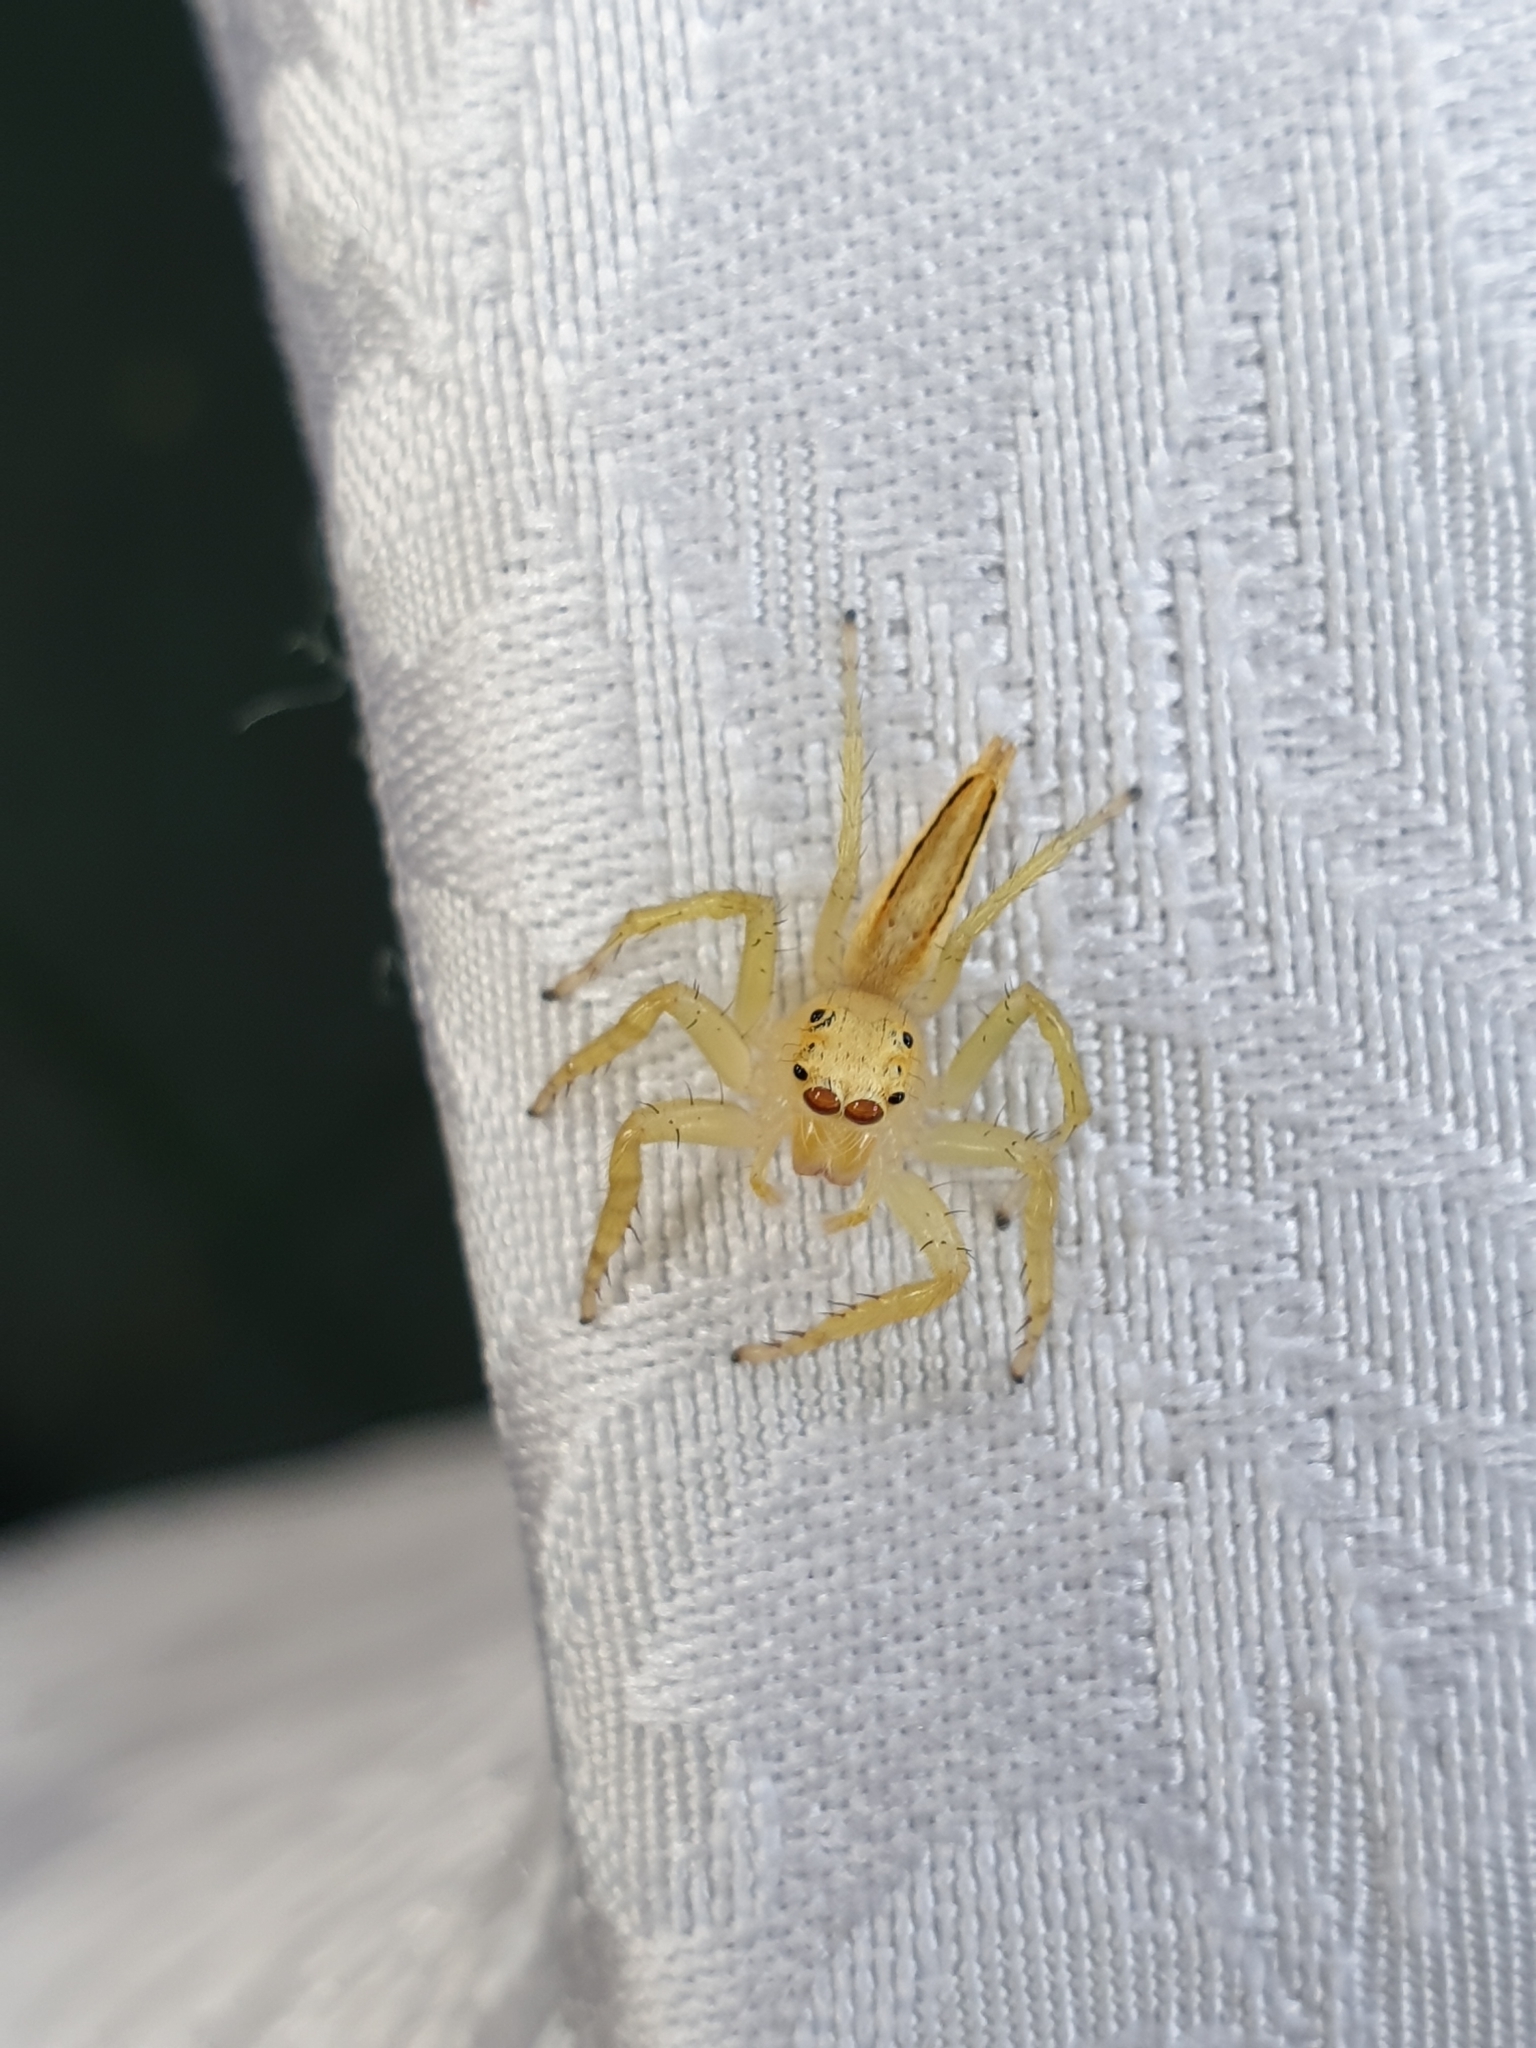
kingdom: Animalia
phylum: Arthropoda
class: Arachnida
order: Araneae
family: Salticidae
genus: Telamonia
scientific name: Telamonia dimidiata
